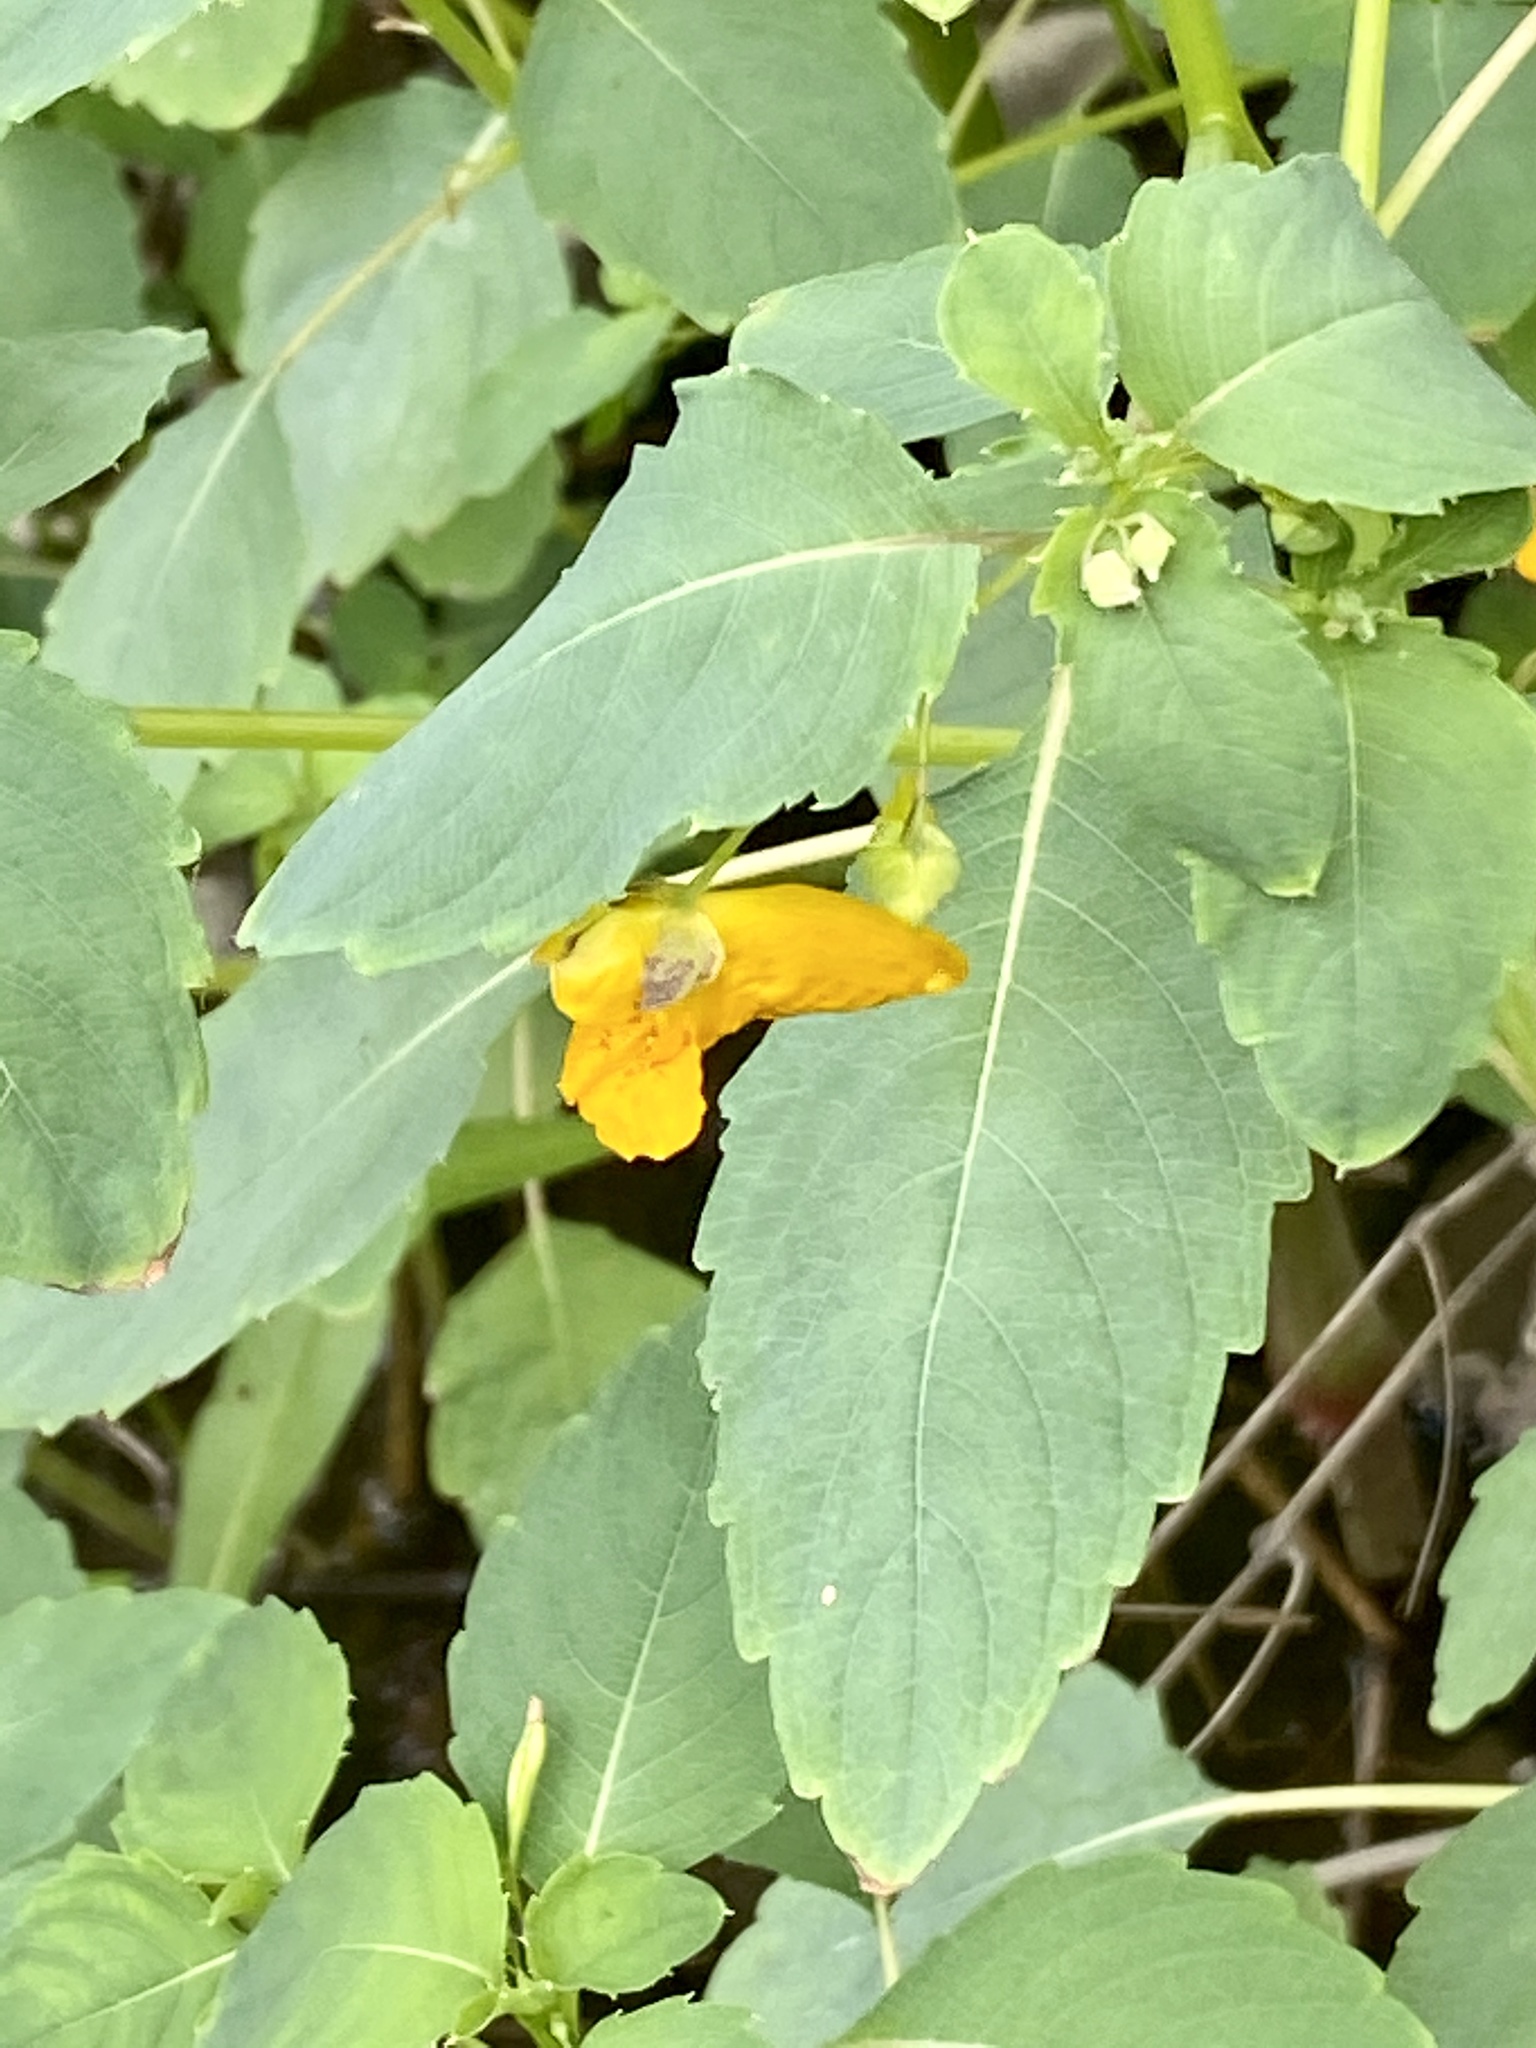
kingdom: Plantae
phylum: Tracheophyta
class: Magnoliopsida
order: Ericales
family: Balsaminaceae
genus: Impatiens
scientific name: Impatiens capensis
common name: Orange balsam
